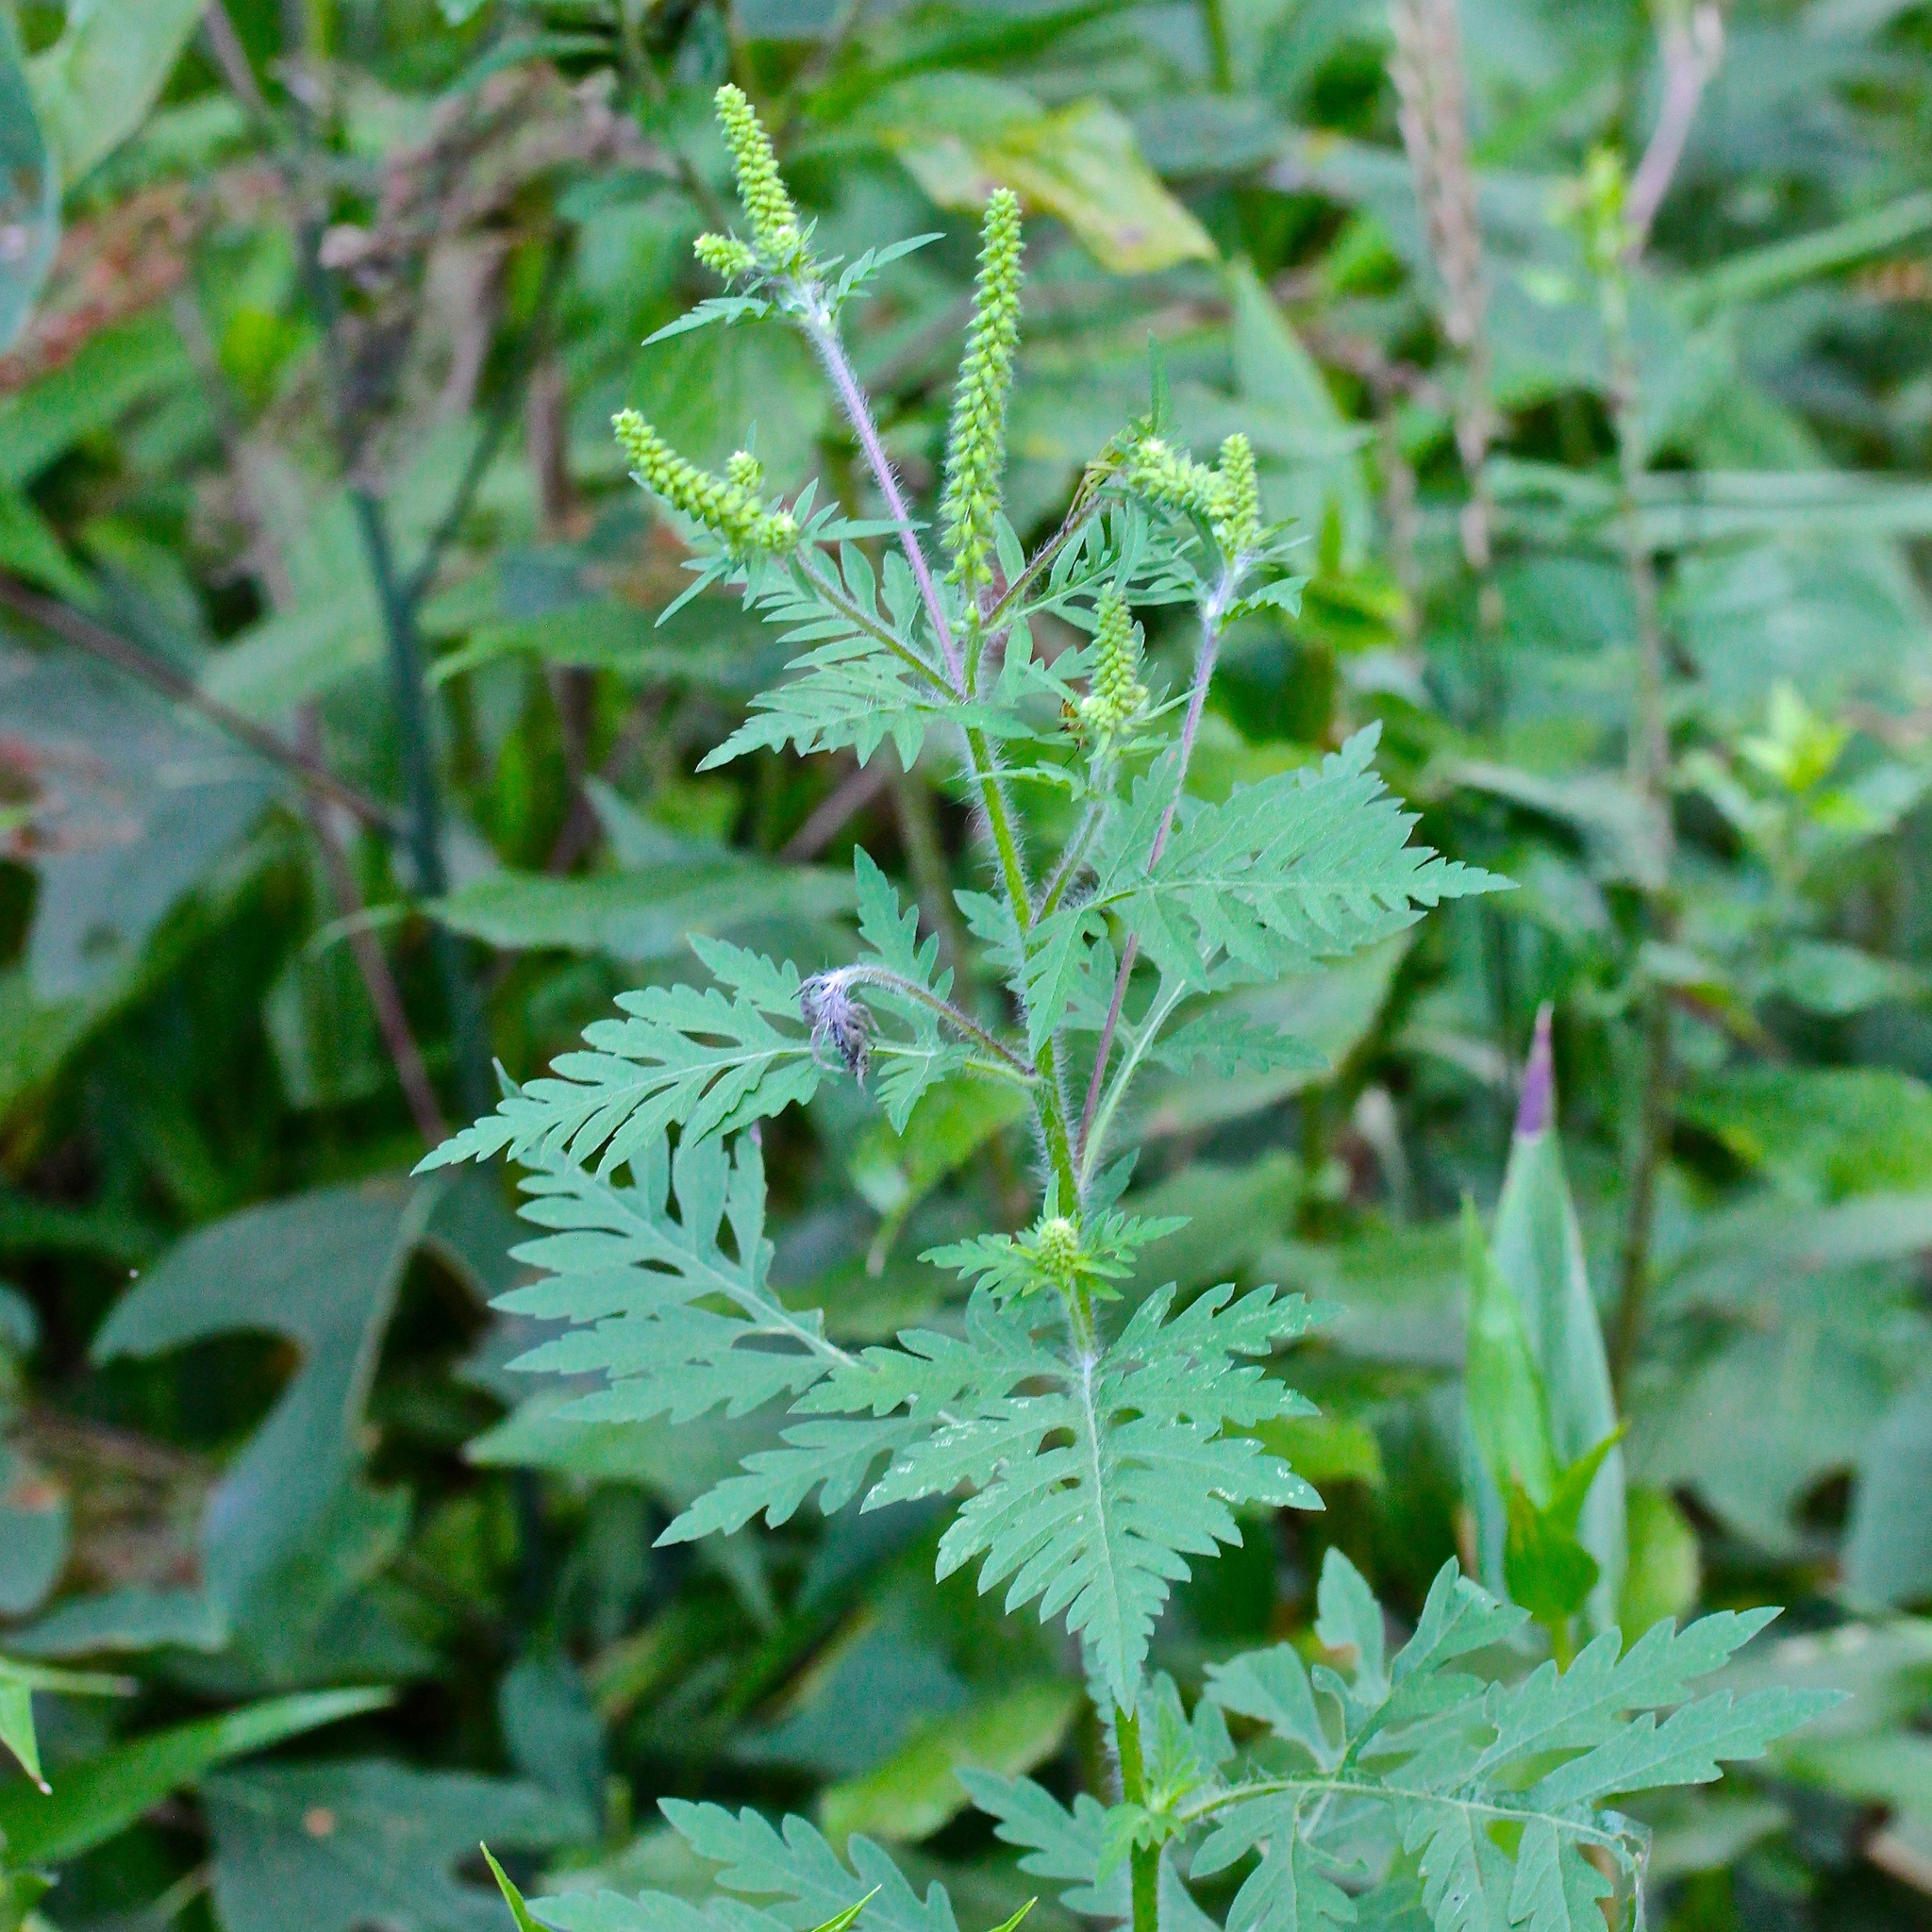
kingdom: Plantae
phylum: Tracheophyta
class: Magnoliopsida
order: Asterales
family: Asteraceae
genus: Ambrosia
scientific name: Ambrosia artemisiifolia
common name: Annual ragweed
